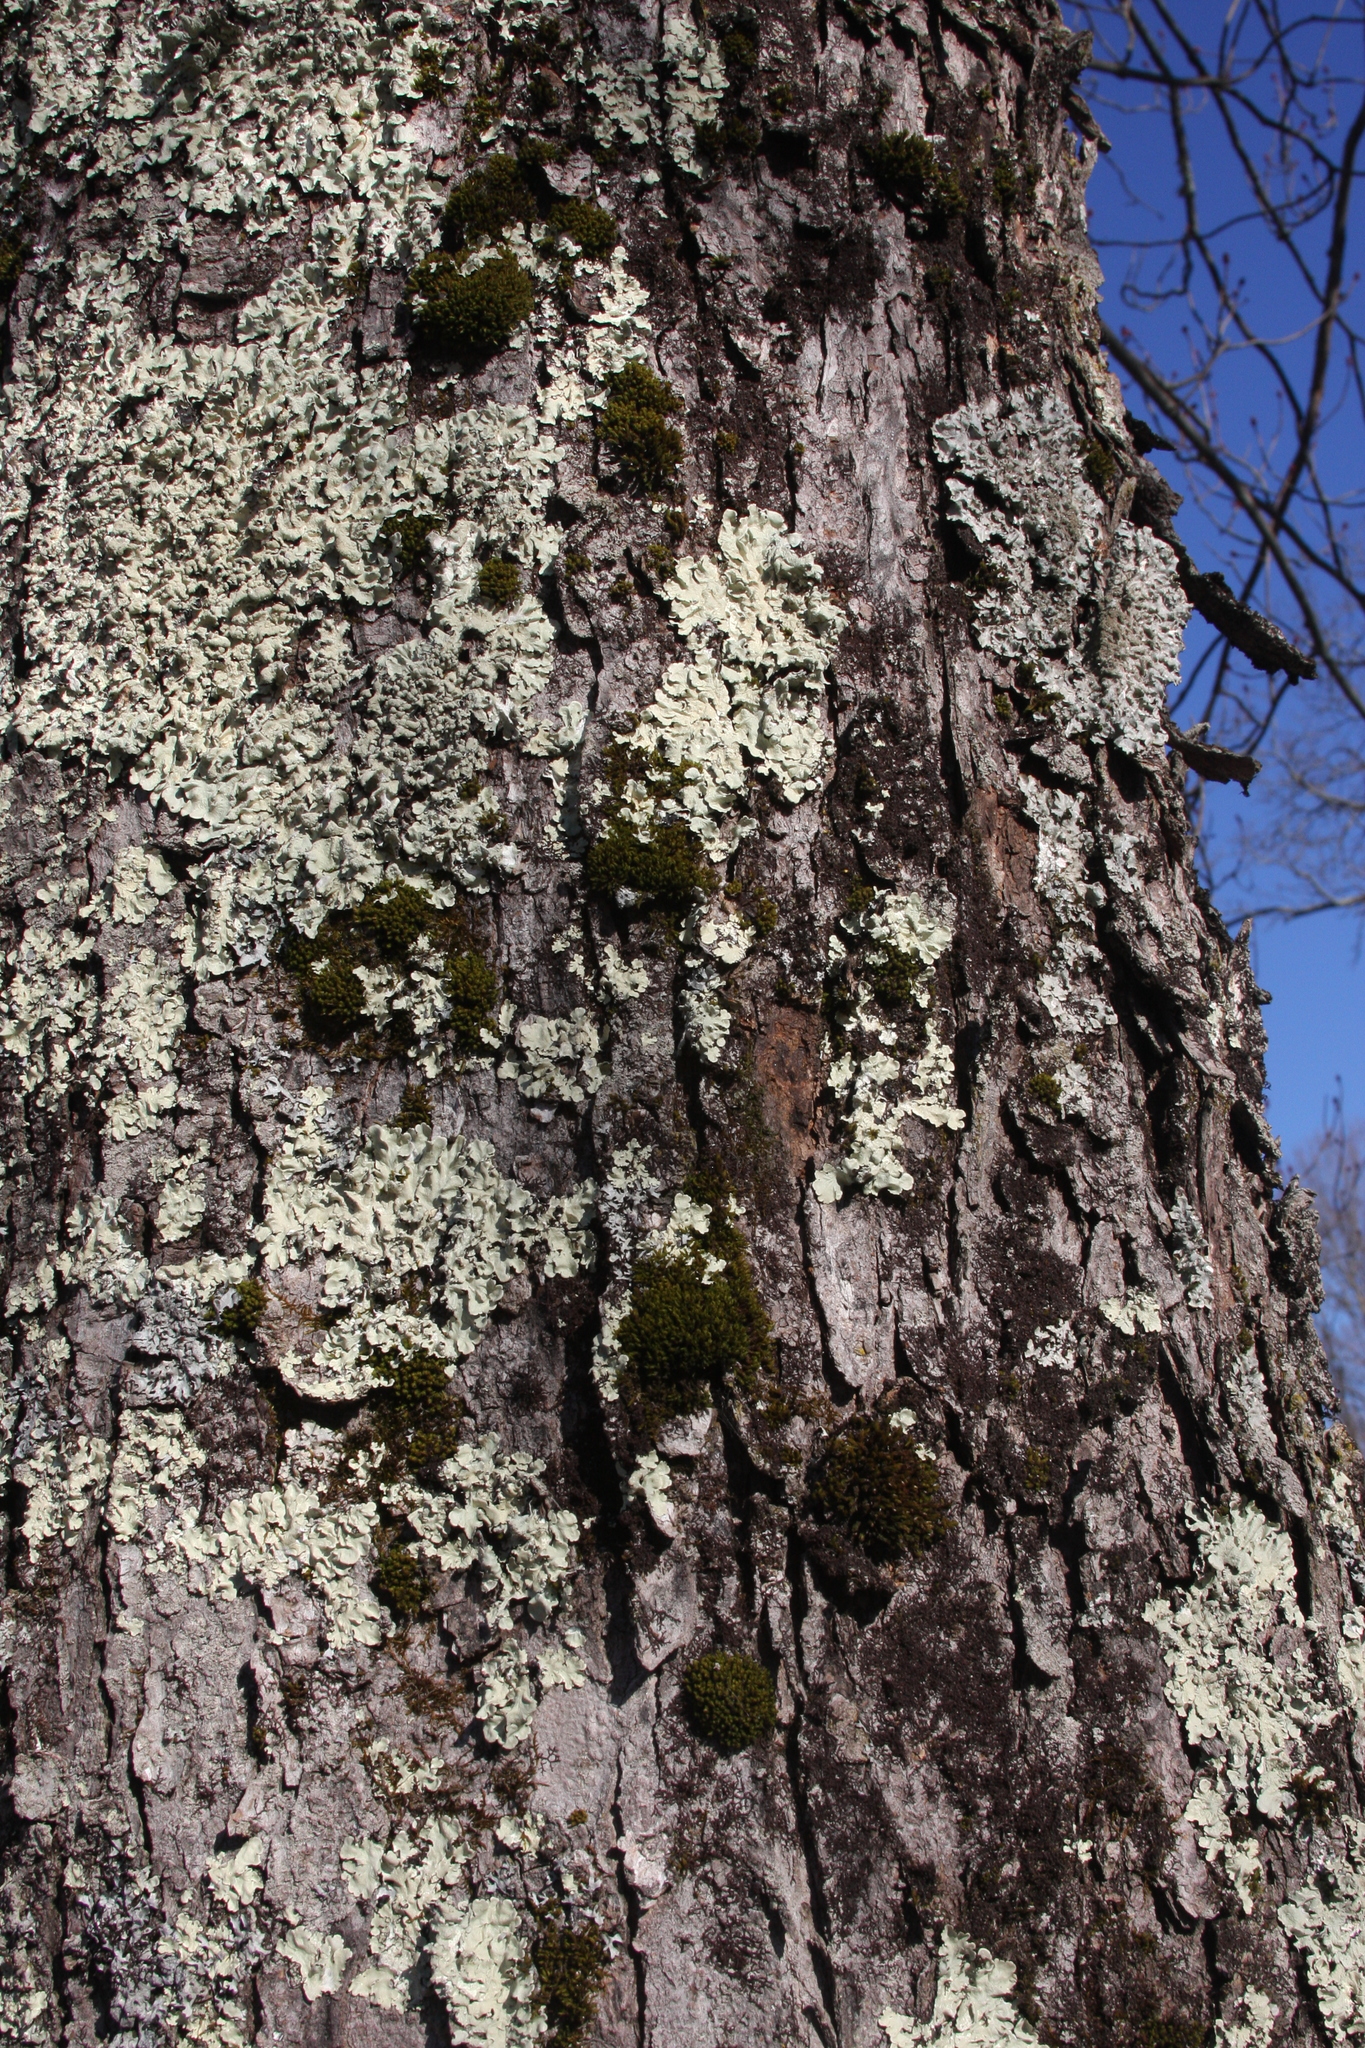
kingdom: Plantae
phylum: Bryophyta
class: Bryopsida
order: Orthotrichales
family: Orthotrichaceae
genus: Ulota
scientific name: Ulota crispa
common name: Crisped pincushion moss
